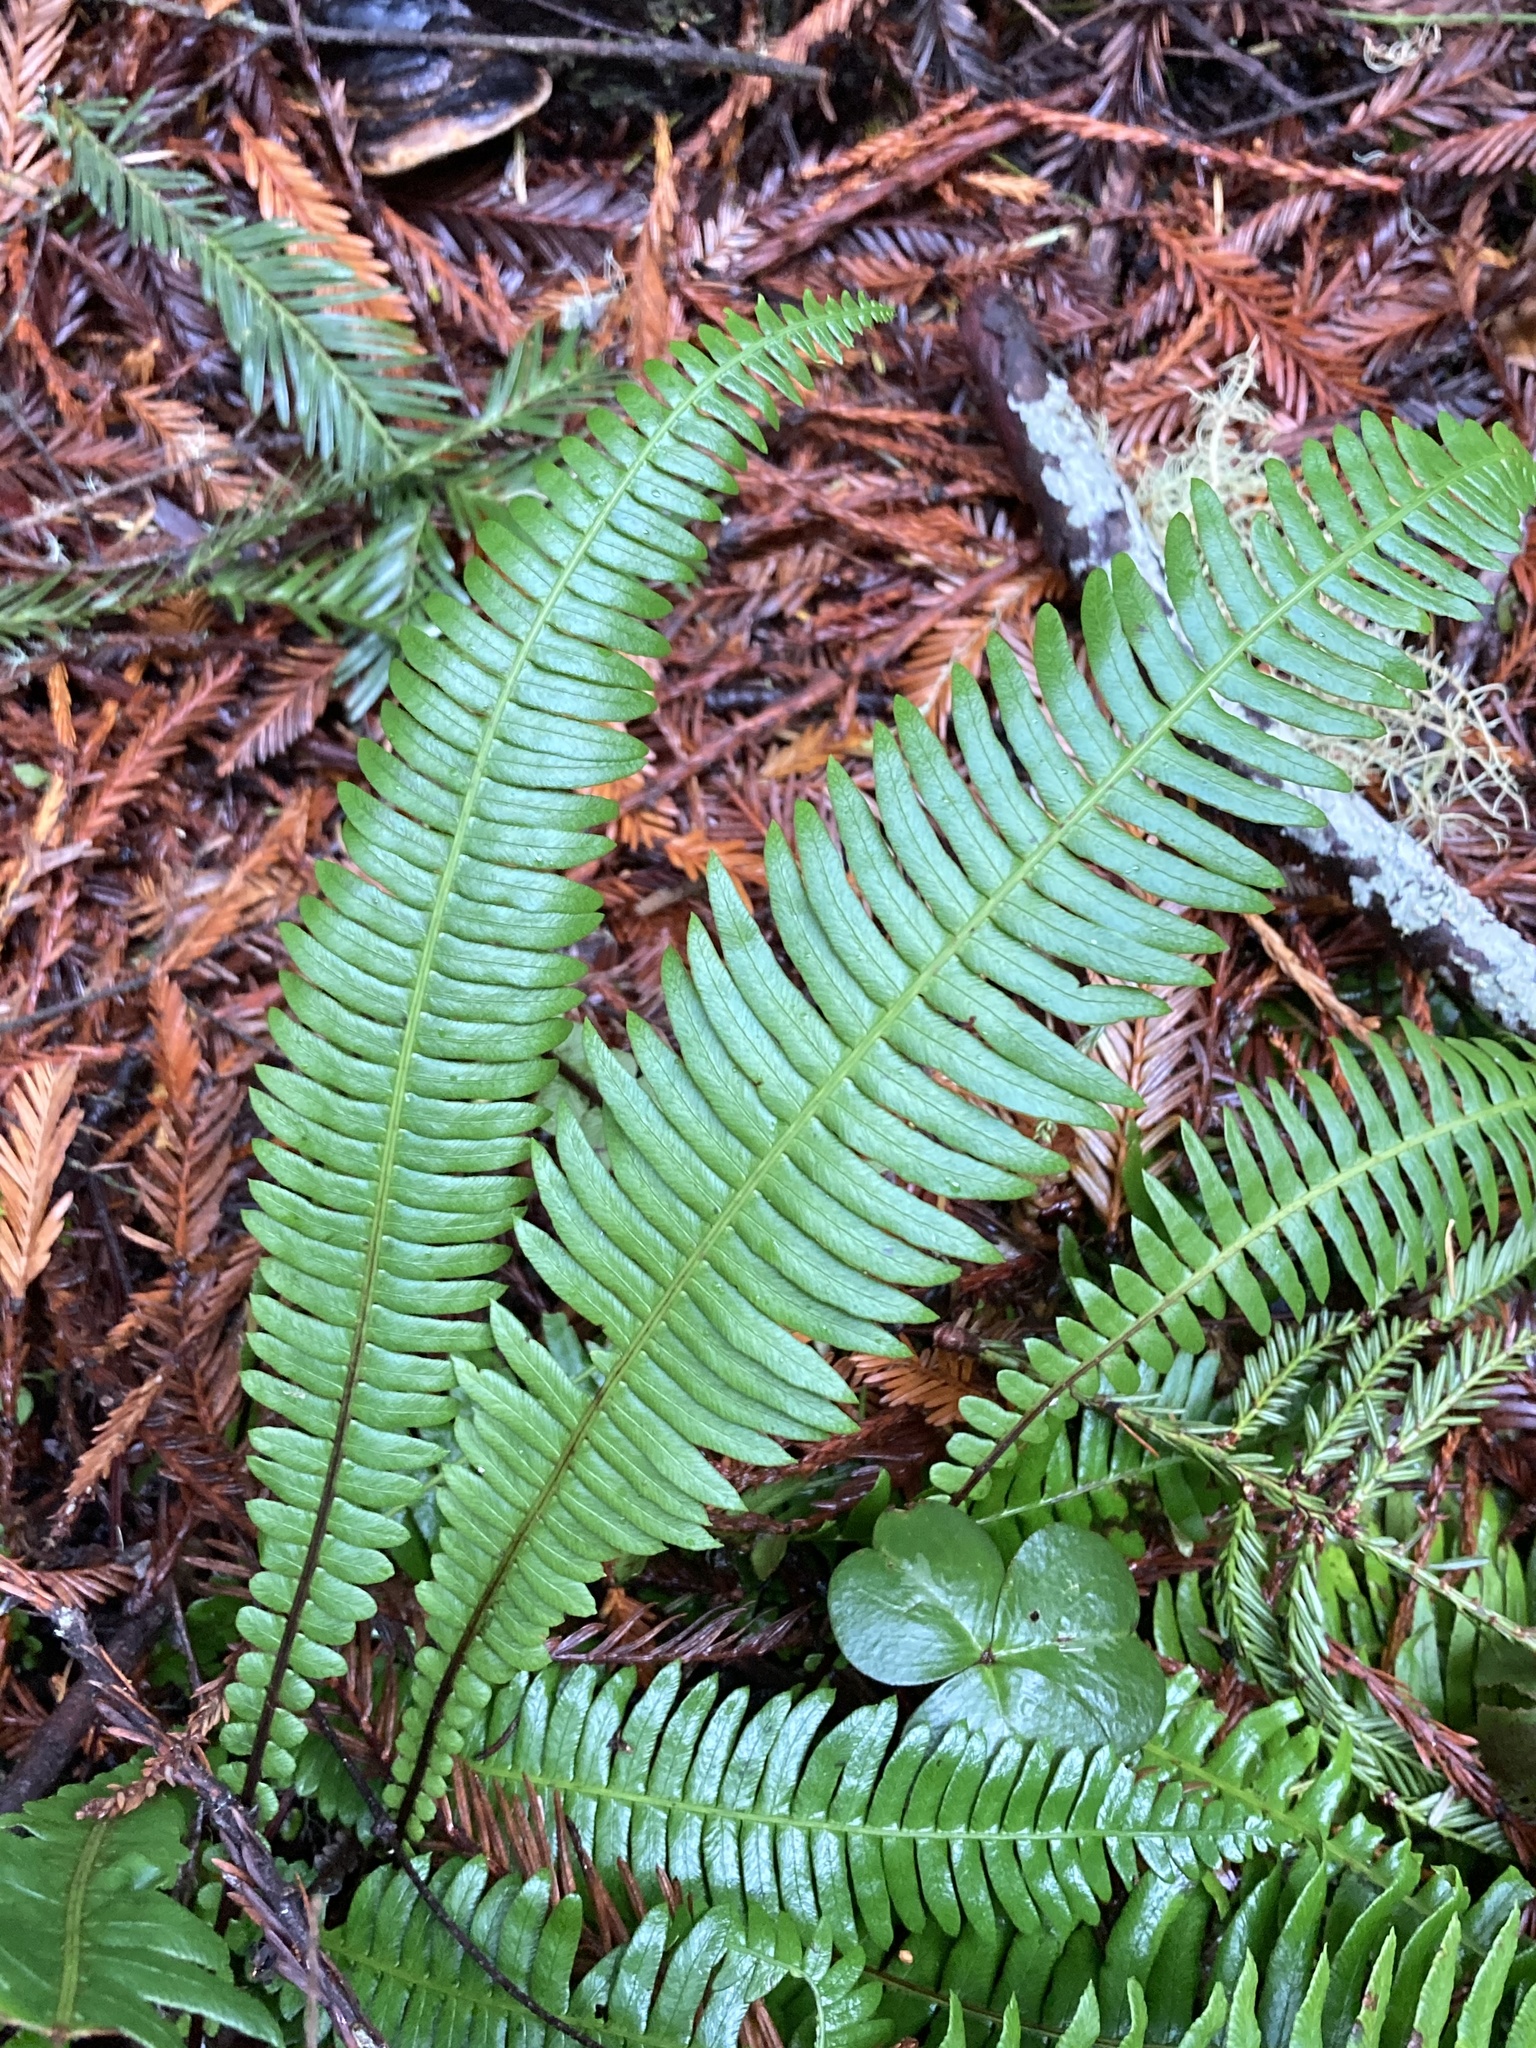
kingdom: Plantae
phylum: Tracheophyta
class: Polypodiopsida
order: Polypodiales
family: Blechnaceae
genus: Struthiopteris
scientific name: Struthiopteris spicant
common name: Deer fern
